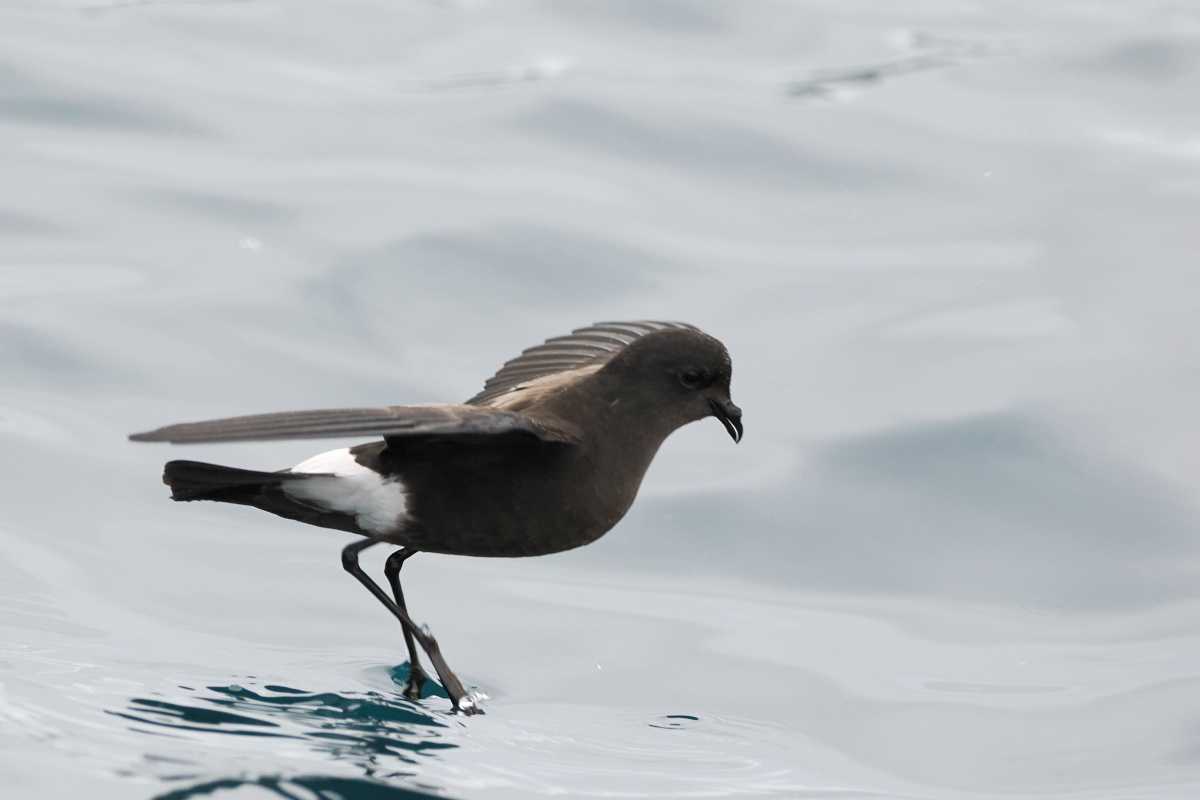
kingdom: Animalia
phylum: Chordata
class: Aves
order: Procellariiformes
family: Hydrobatidae
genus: Oceanites
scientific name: Oceanites oceanicus
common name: Wilson's storm petrel
